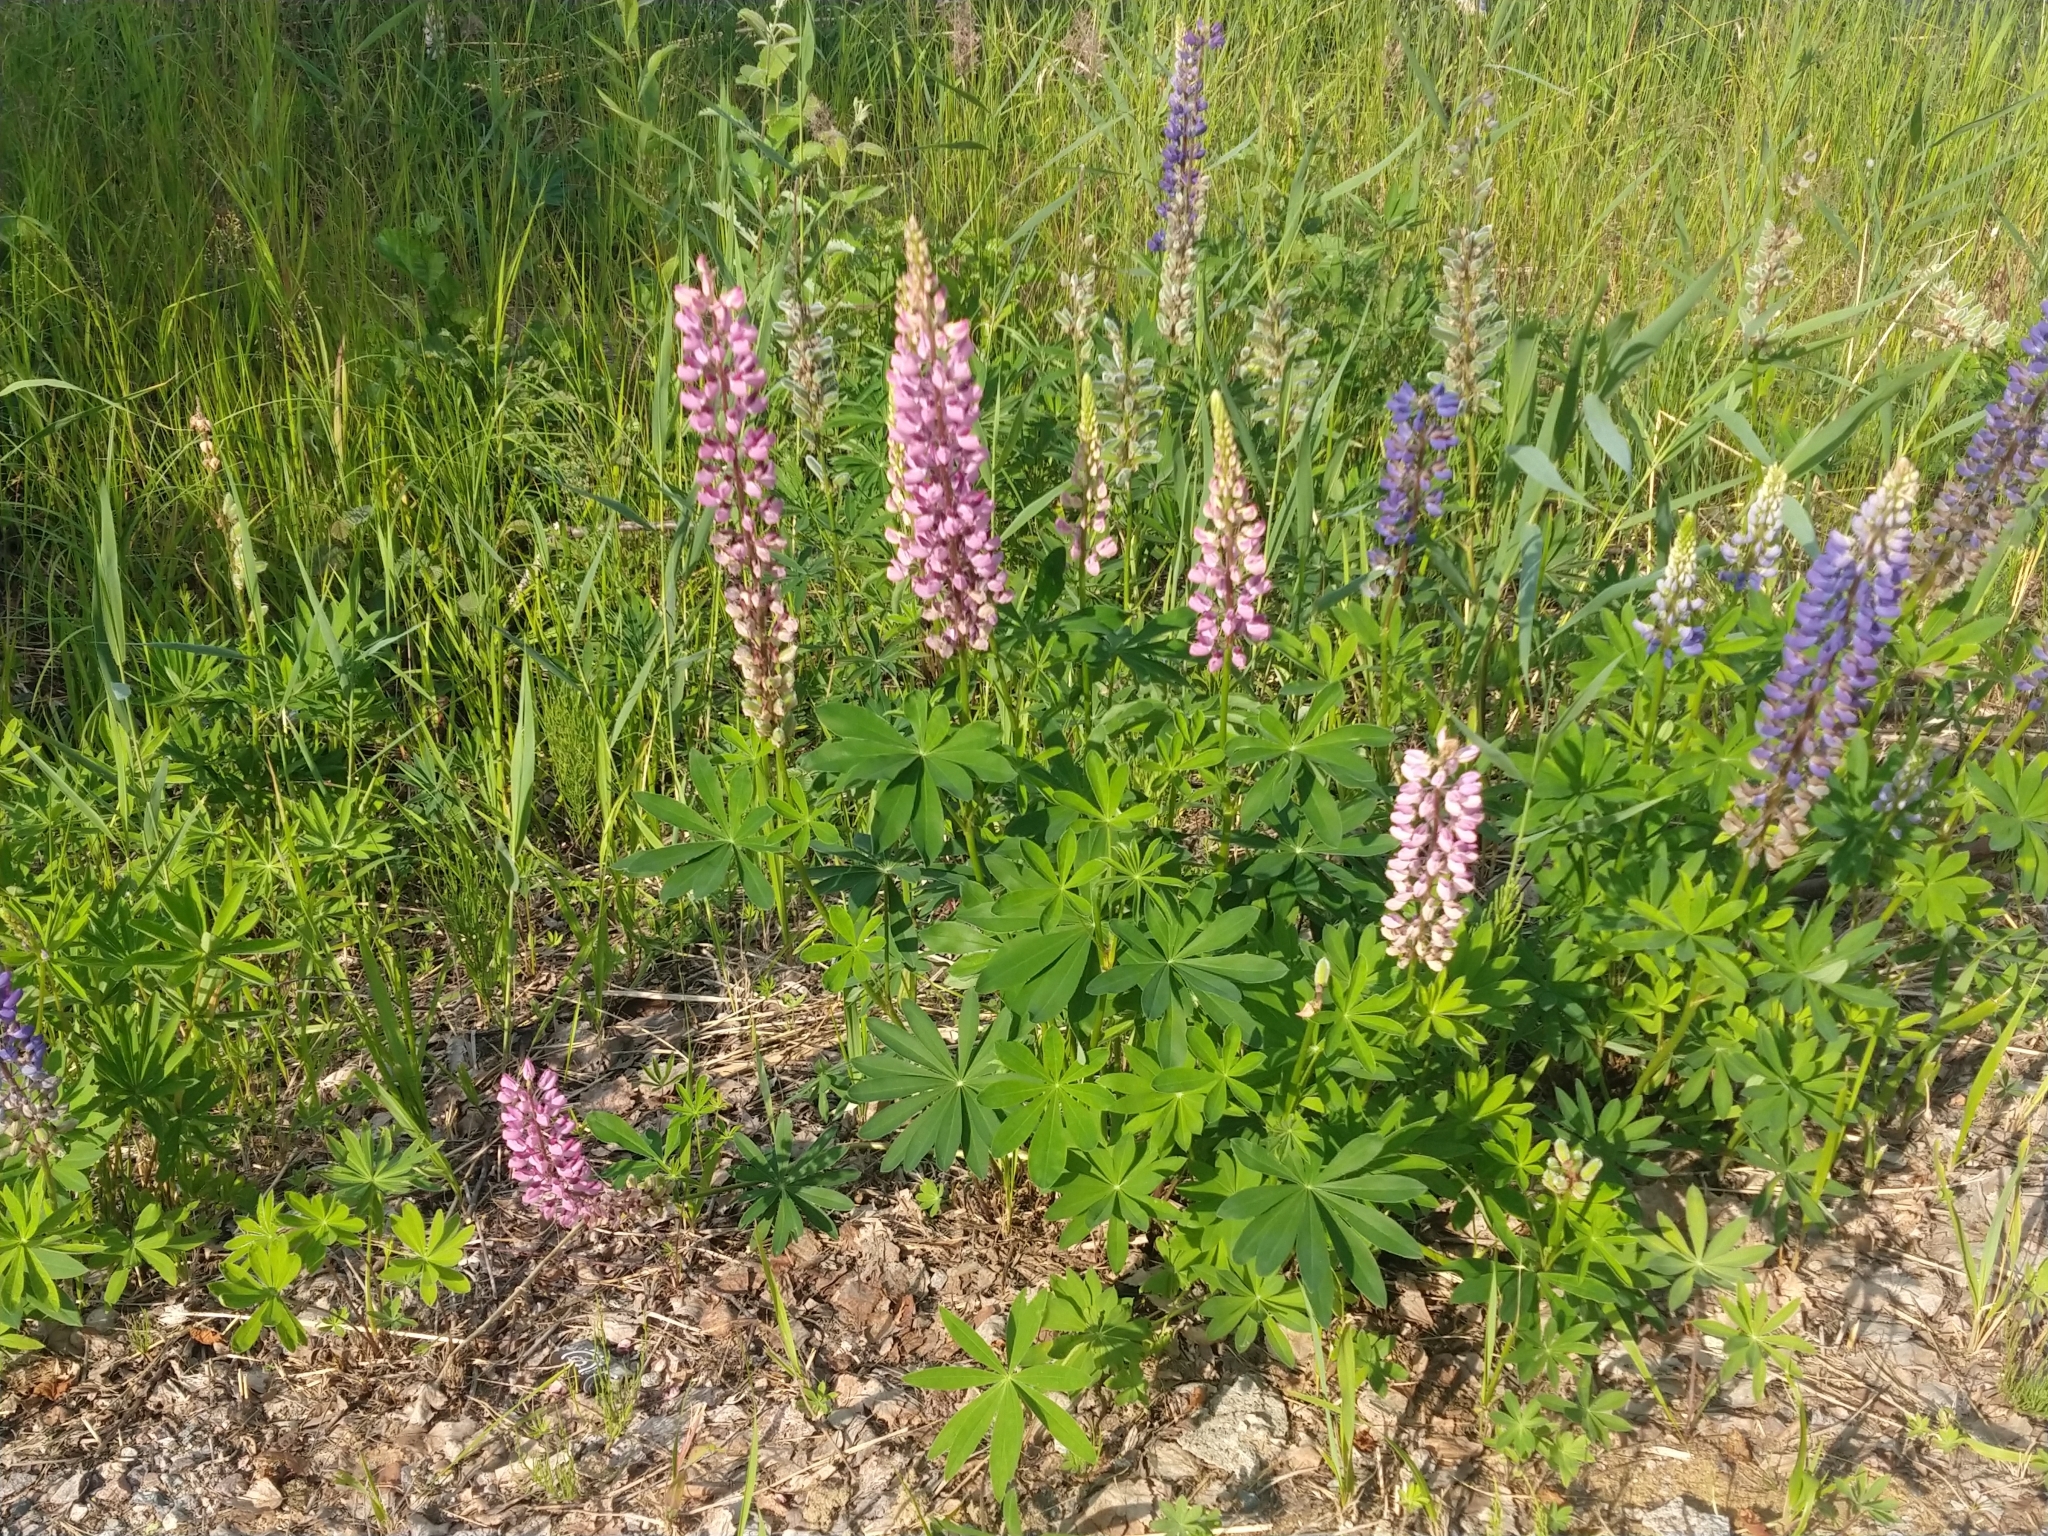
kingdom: Plantae
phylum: Tracheophyta
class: Magnoliopsida
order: Fabales
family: Fabaceae
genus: Lupinus
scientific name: Lupinus polyphyllus
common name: Garden lupin
